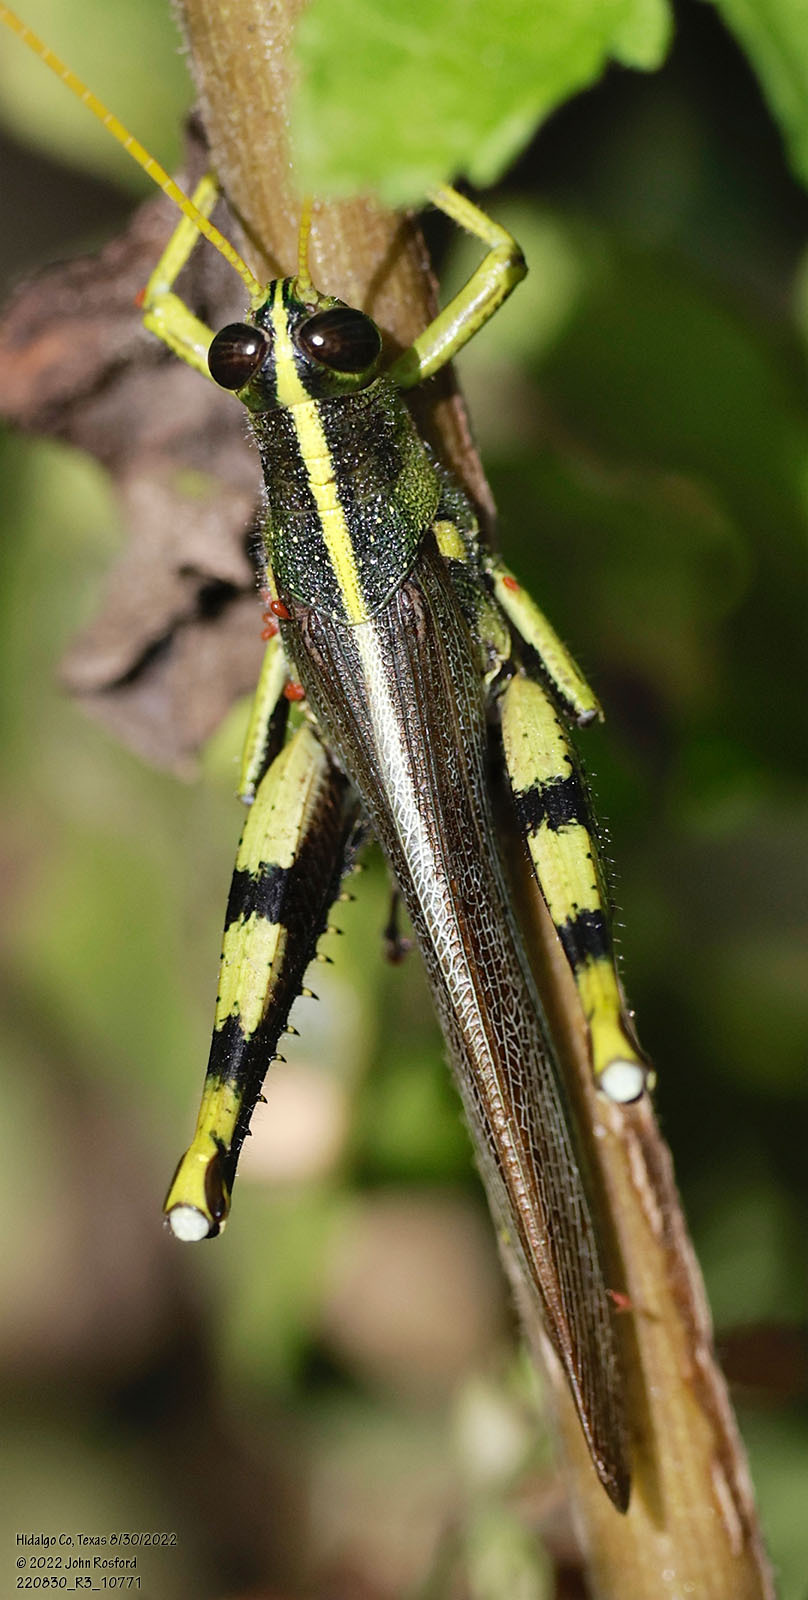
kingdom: Animalia
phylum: Arthropoda
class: Insecta
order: Orthoptera
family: Acrididae
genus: Schistocerca
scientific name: Schistocerca obscura
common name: Obscure bird grasshopper
